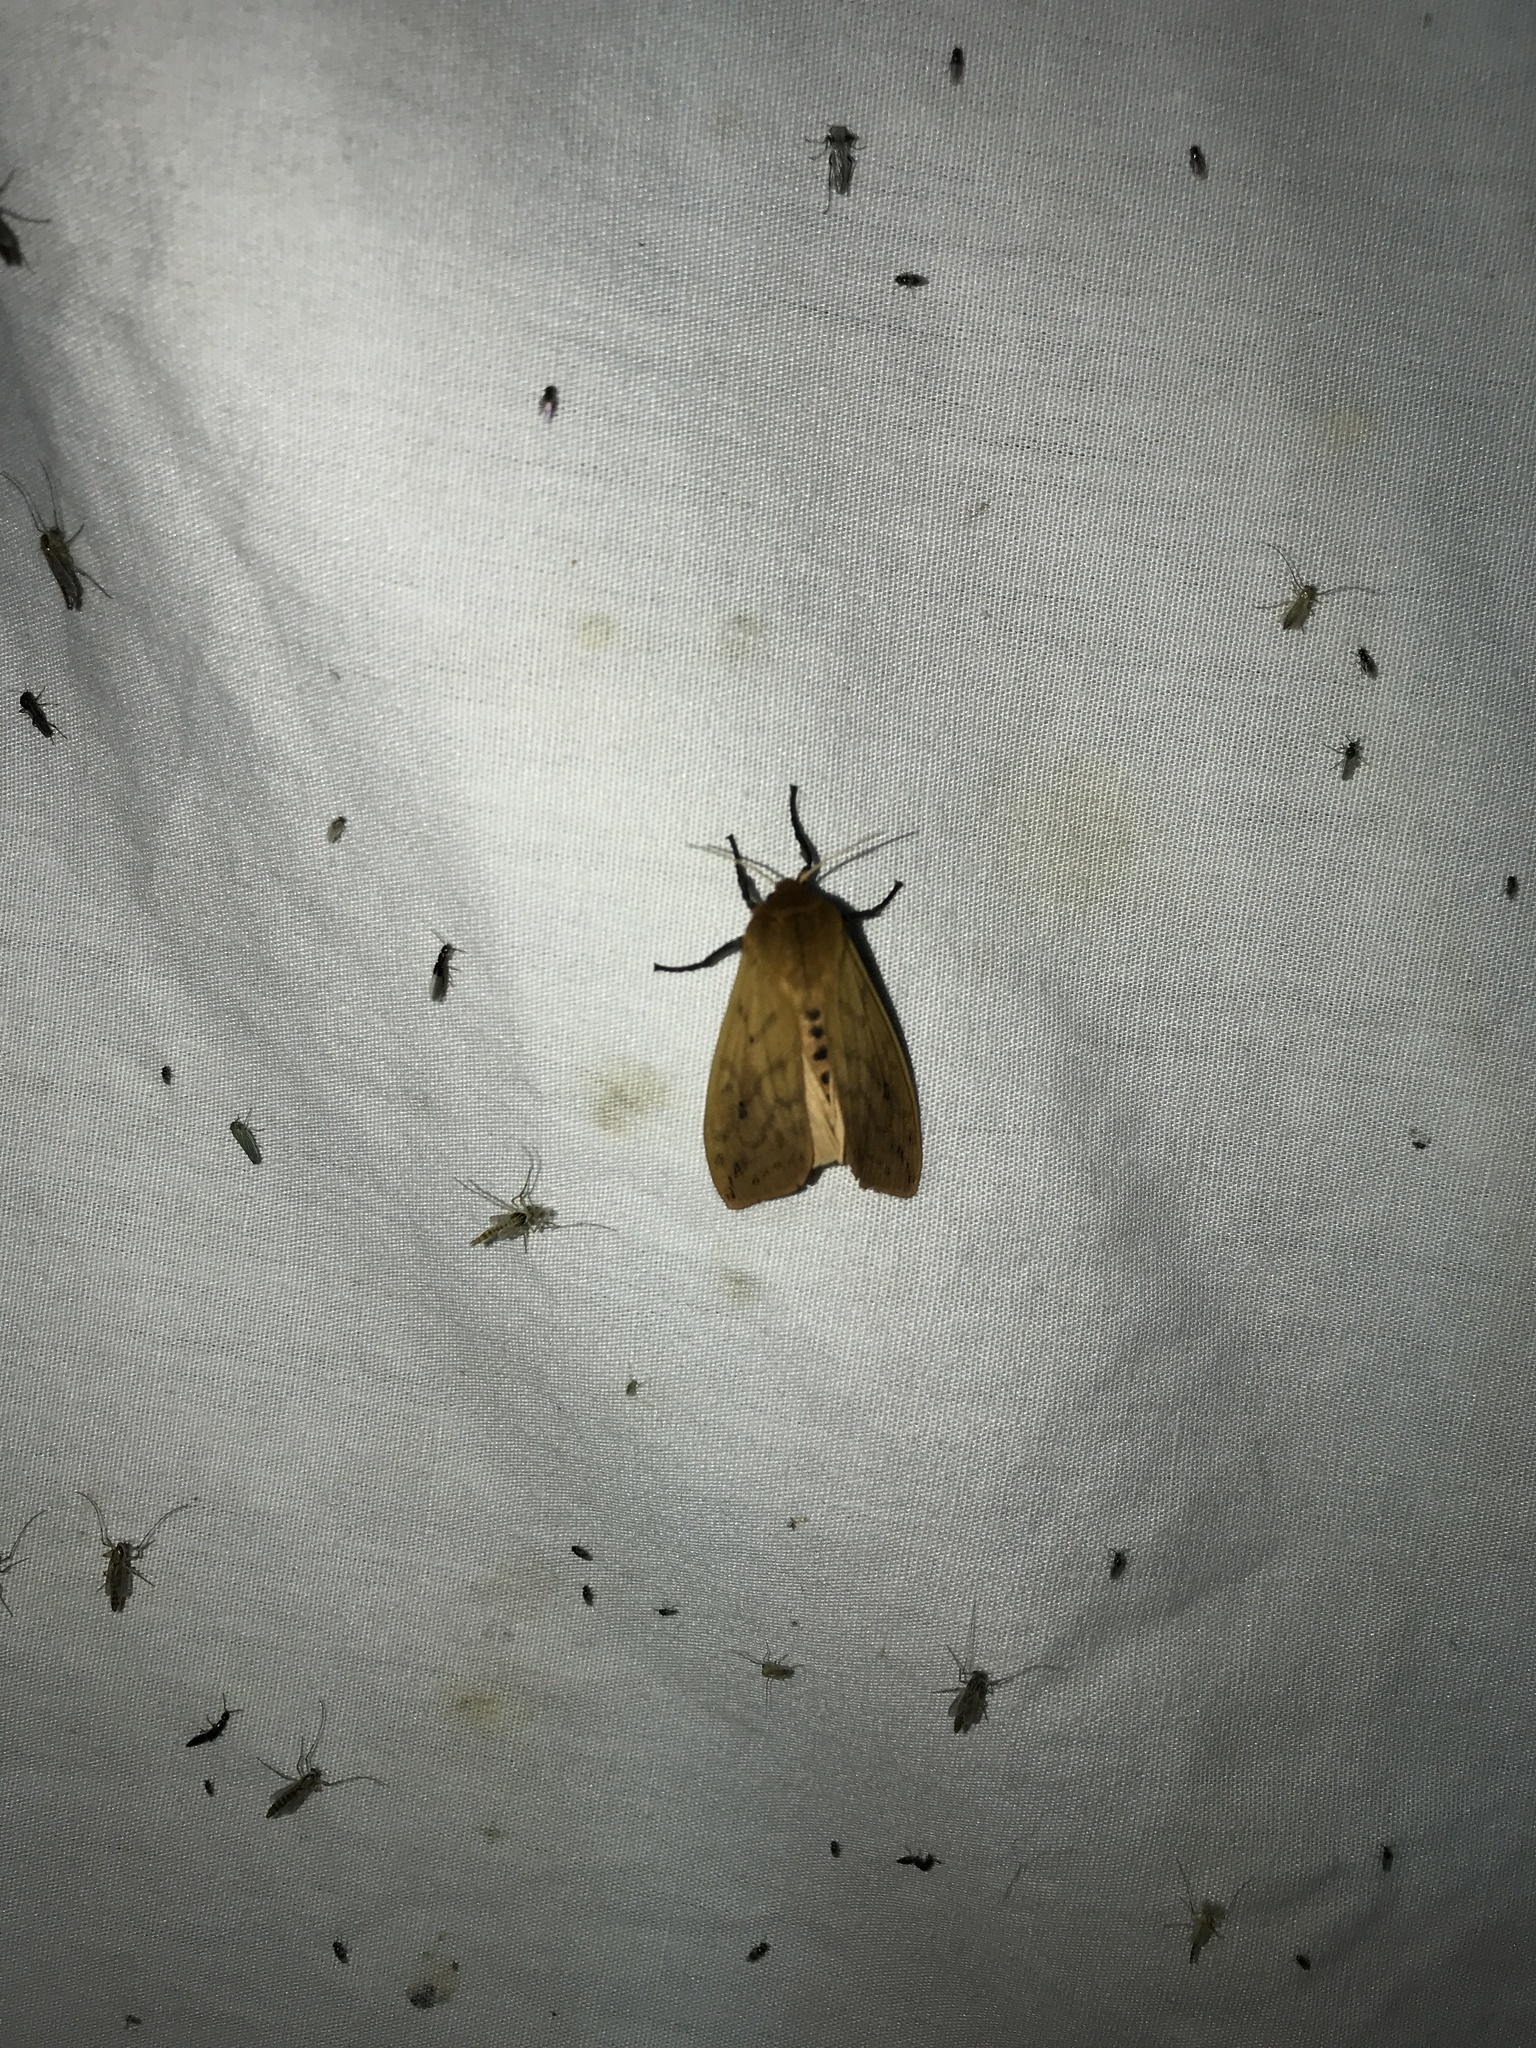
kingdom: Animalia
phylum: Arthropoda
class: Insecta
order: Lepidoptera
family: Erebidae
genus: Pyrrharctia
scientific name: Pyrrharctia isabella
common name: Isabella tiger moth
